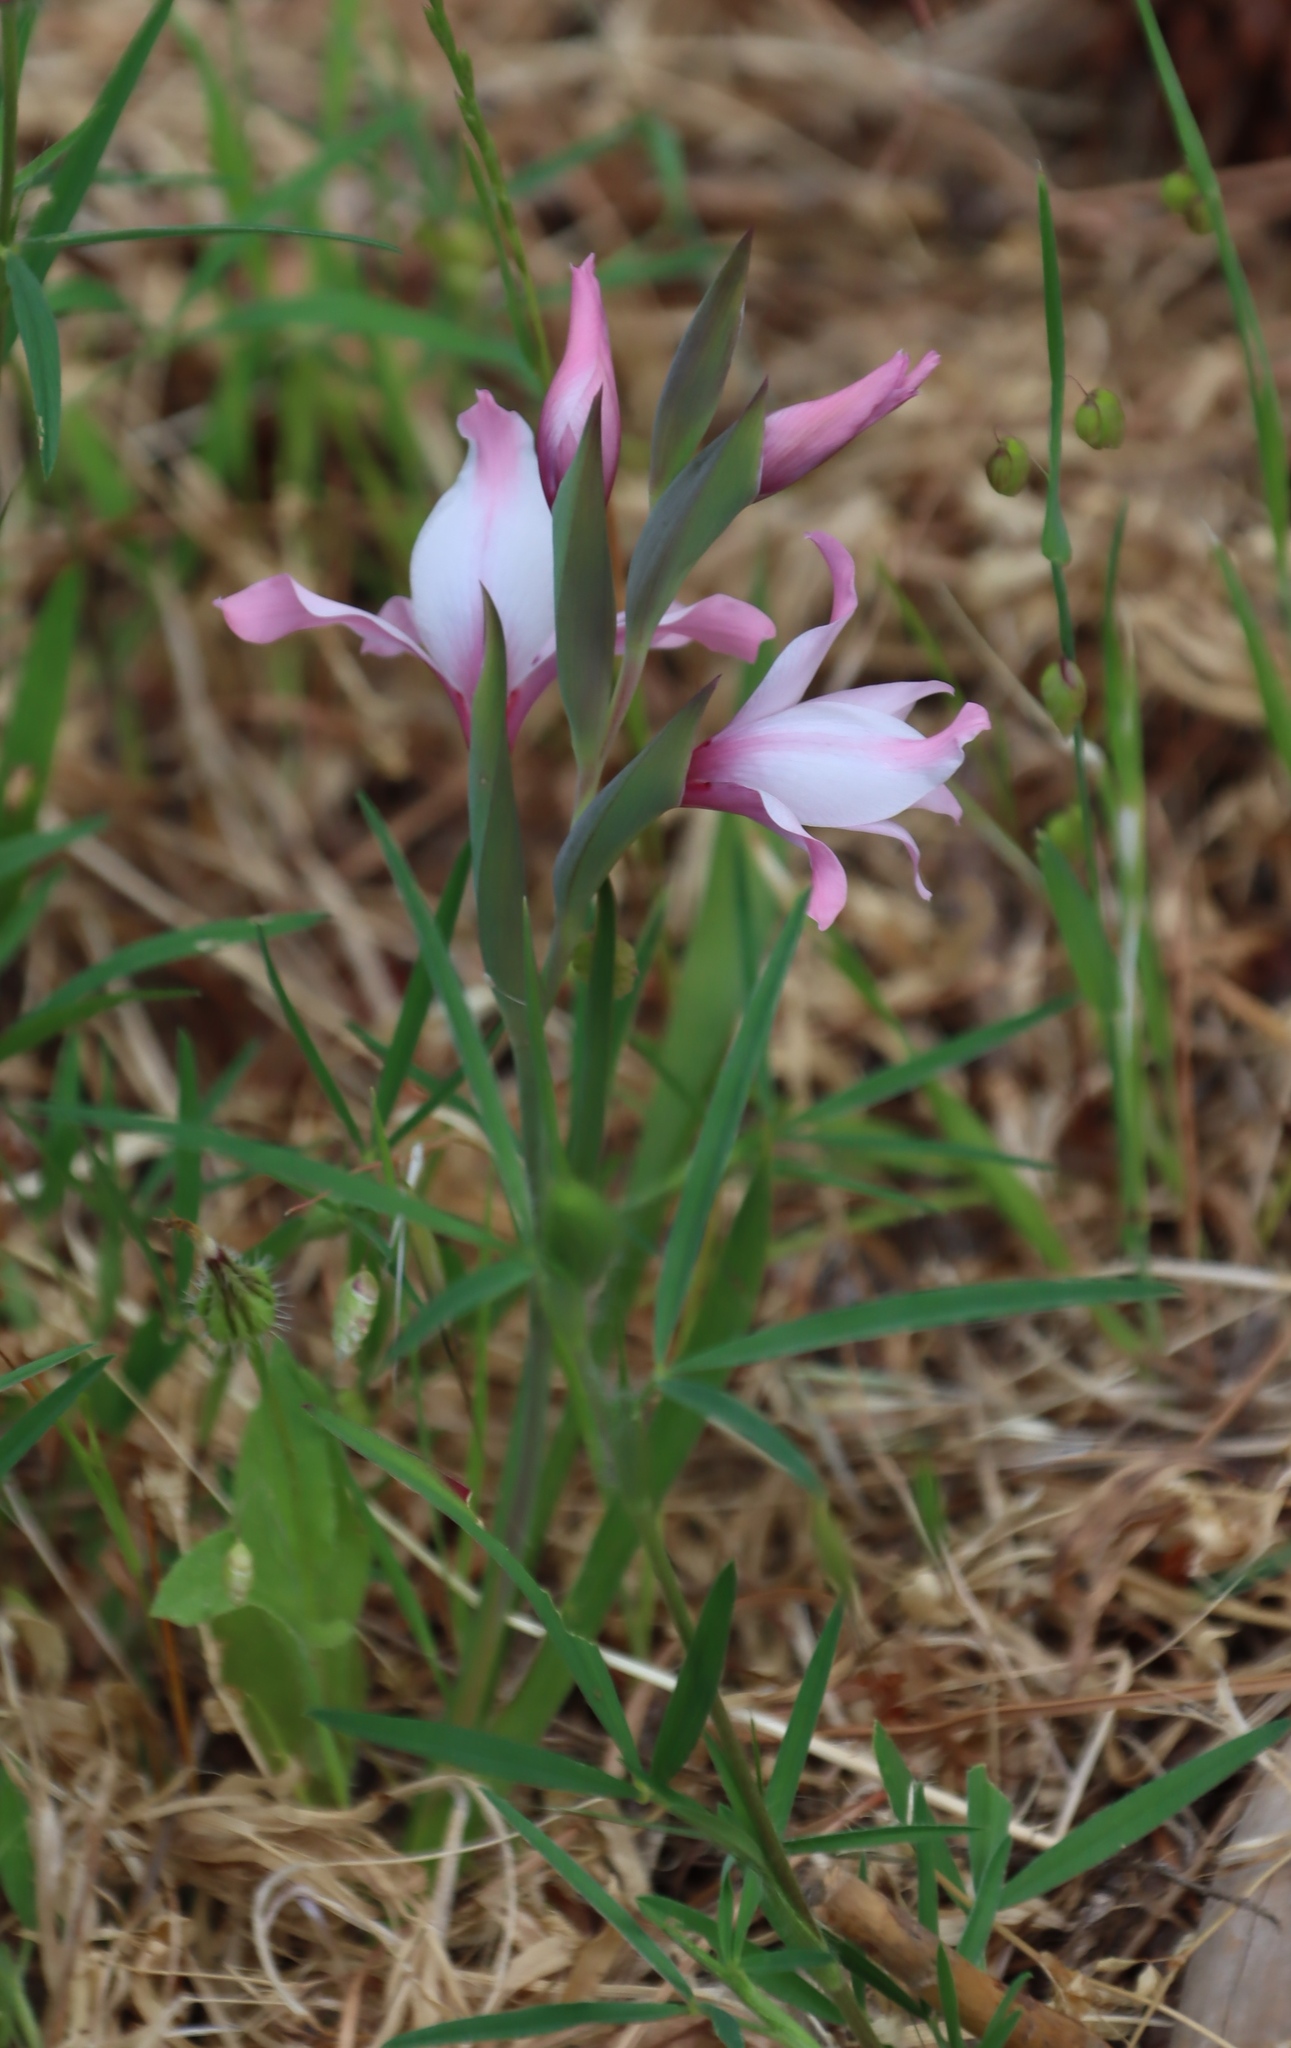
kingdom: Plantae
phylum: Tracheophyta
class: Liliopsida
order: Asparagales
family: Iridaceae
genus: Gladiolus
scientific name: Gladiolus carneus
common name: Painted-lady
